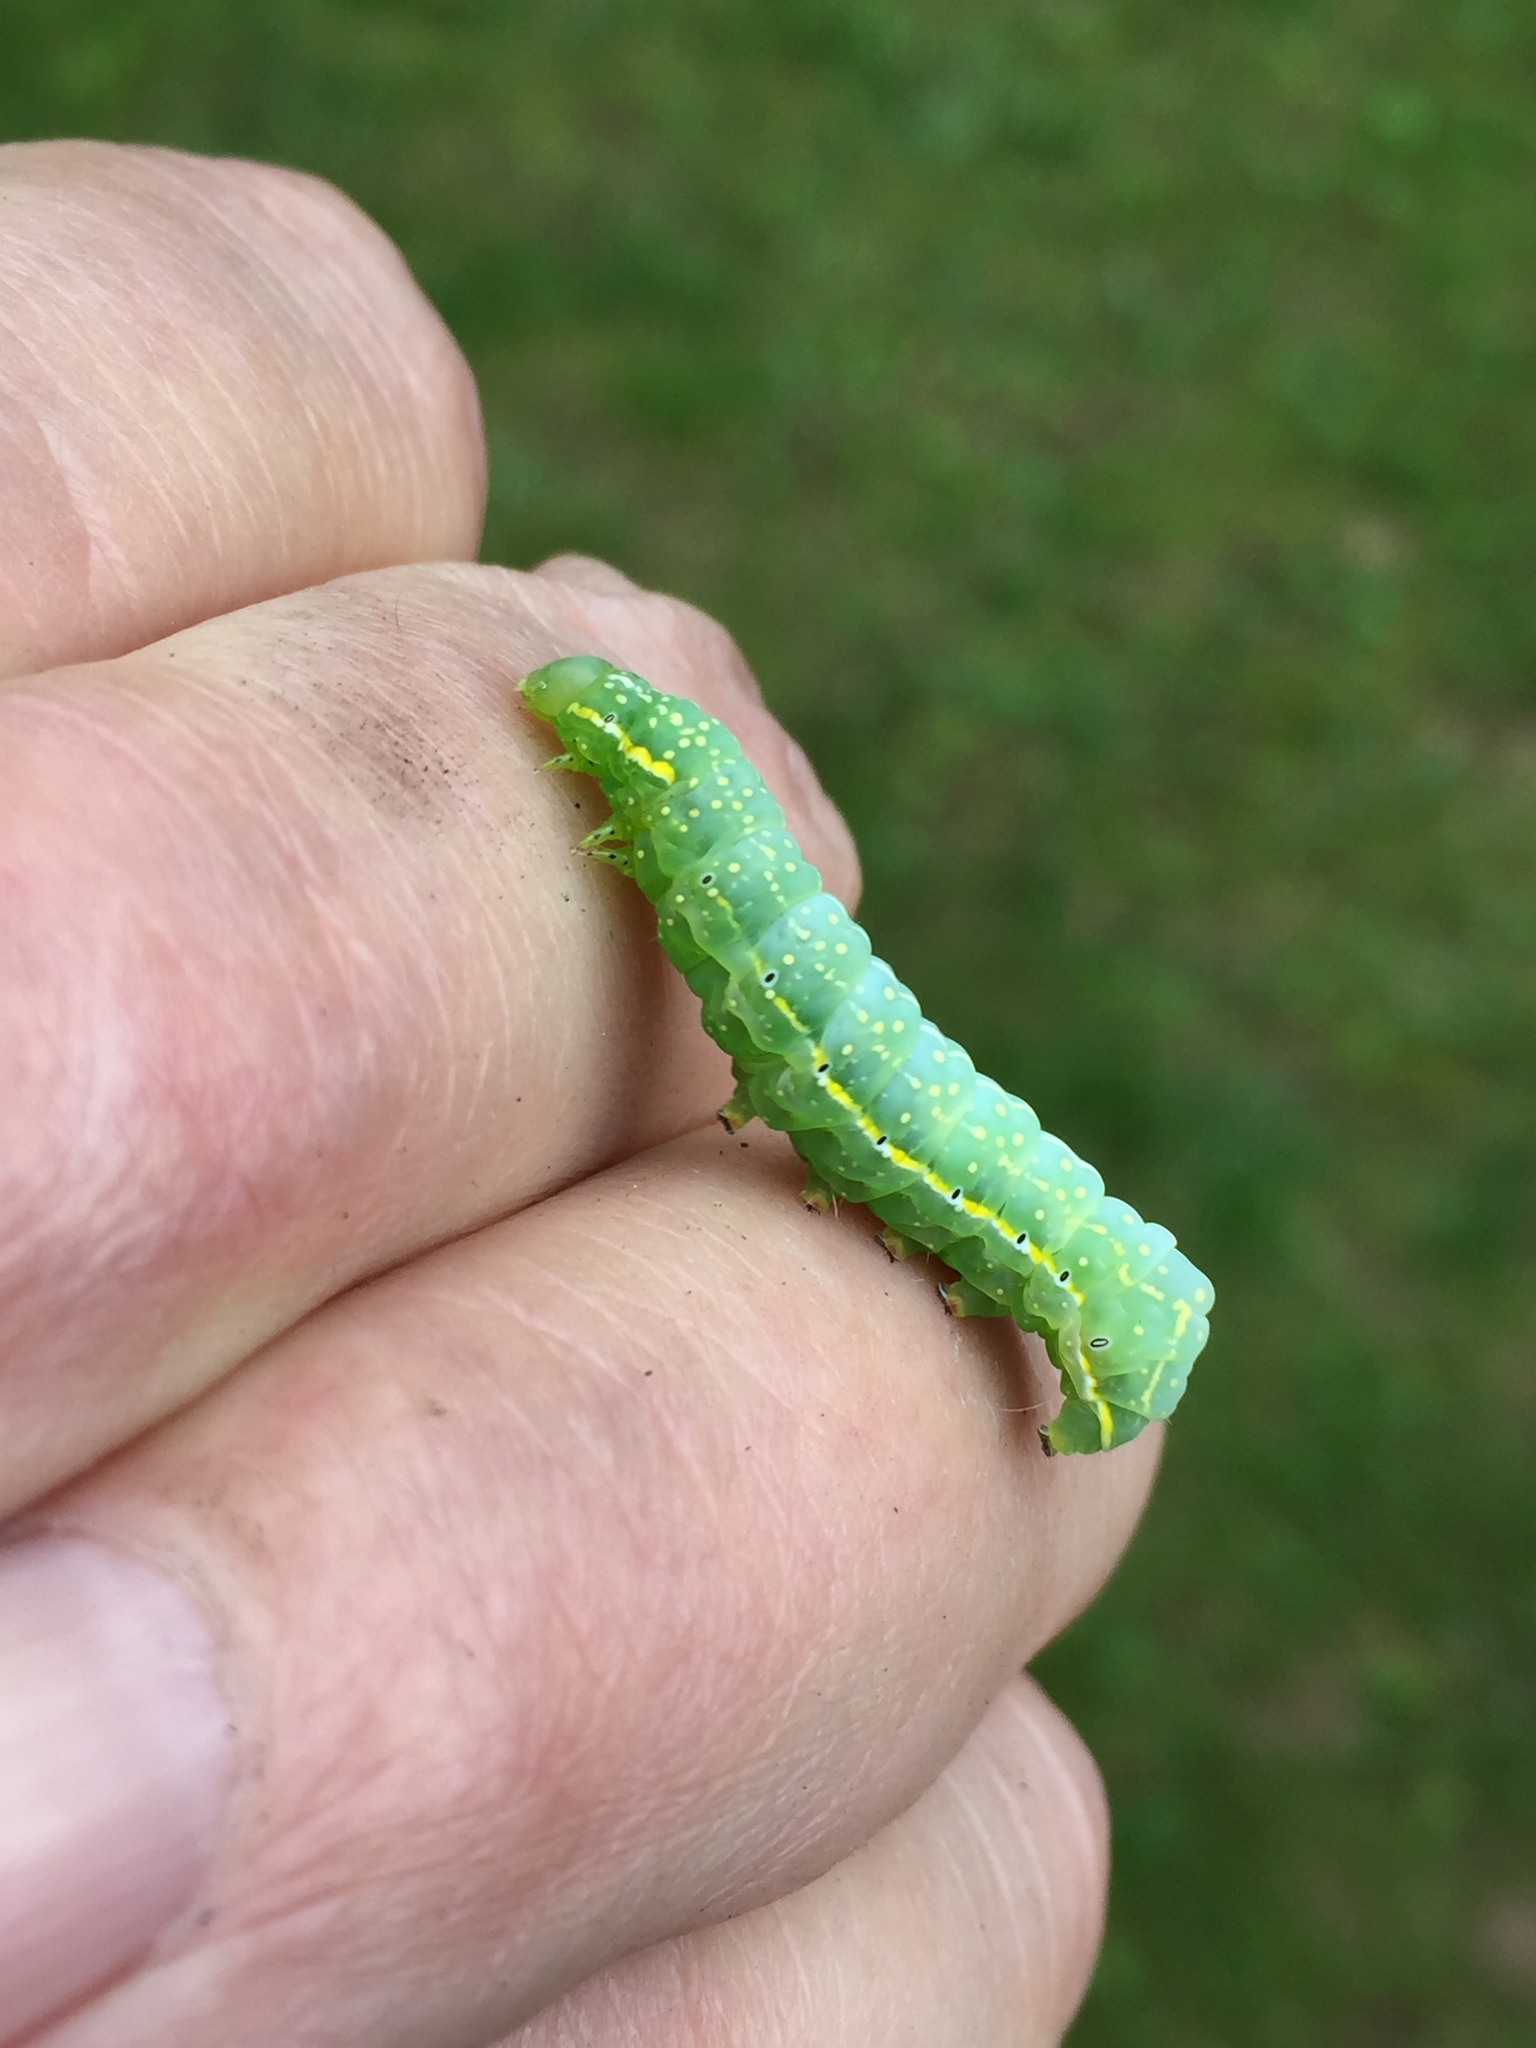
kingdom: Animalia
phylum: Arthropoda
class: Insecta
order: Lepidoptera
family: Noctuidae
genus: Amphipyra
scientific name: Amphipyra pyramidoides
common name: American copper underwing
